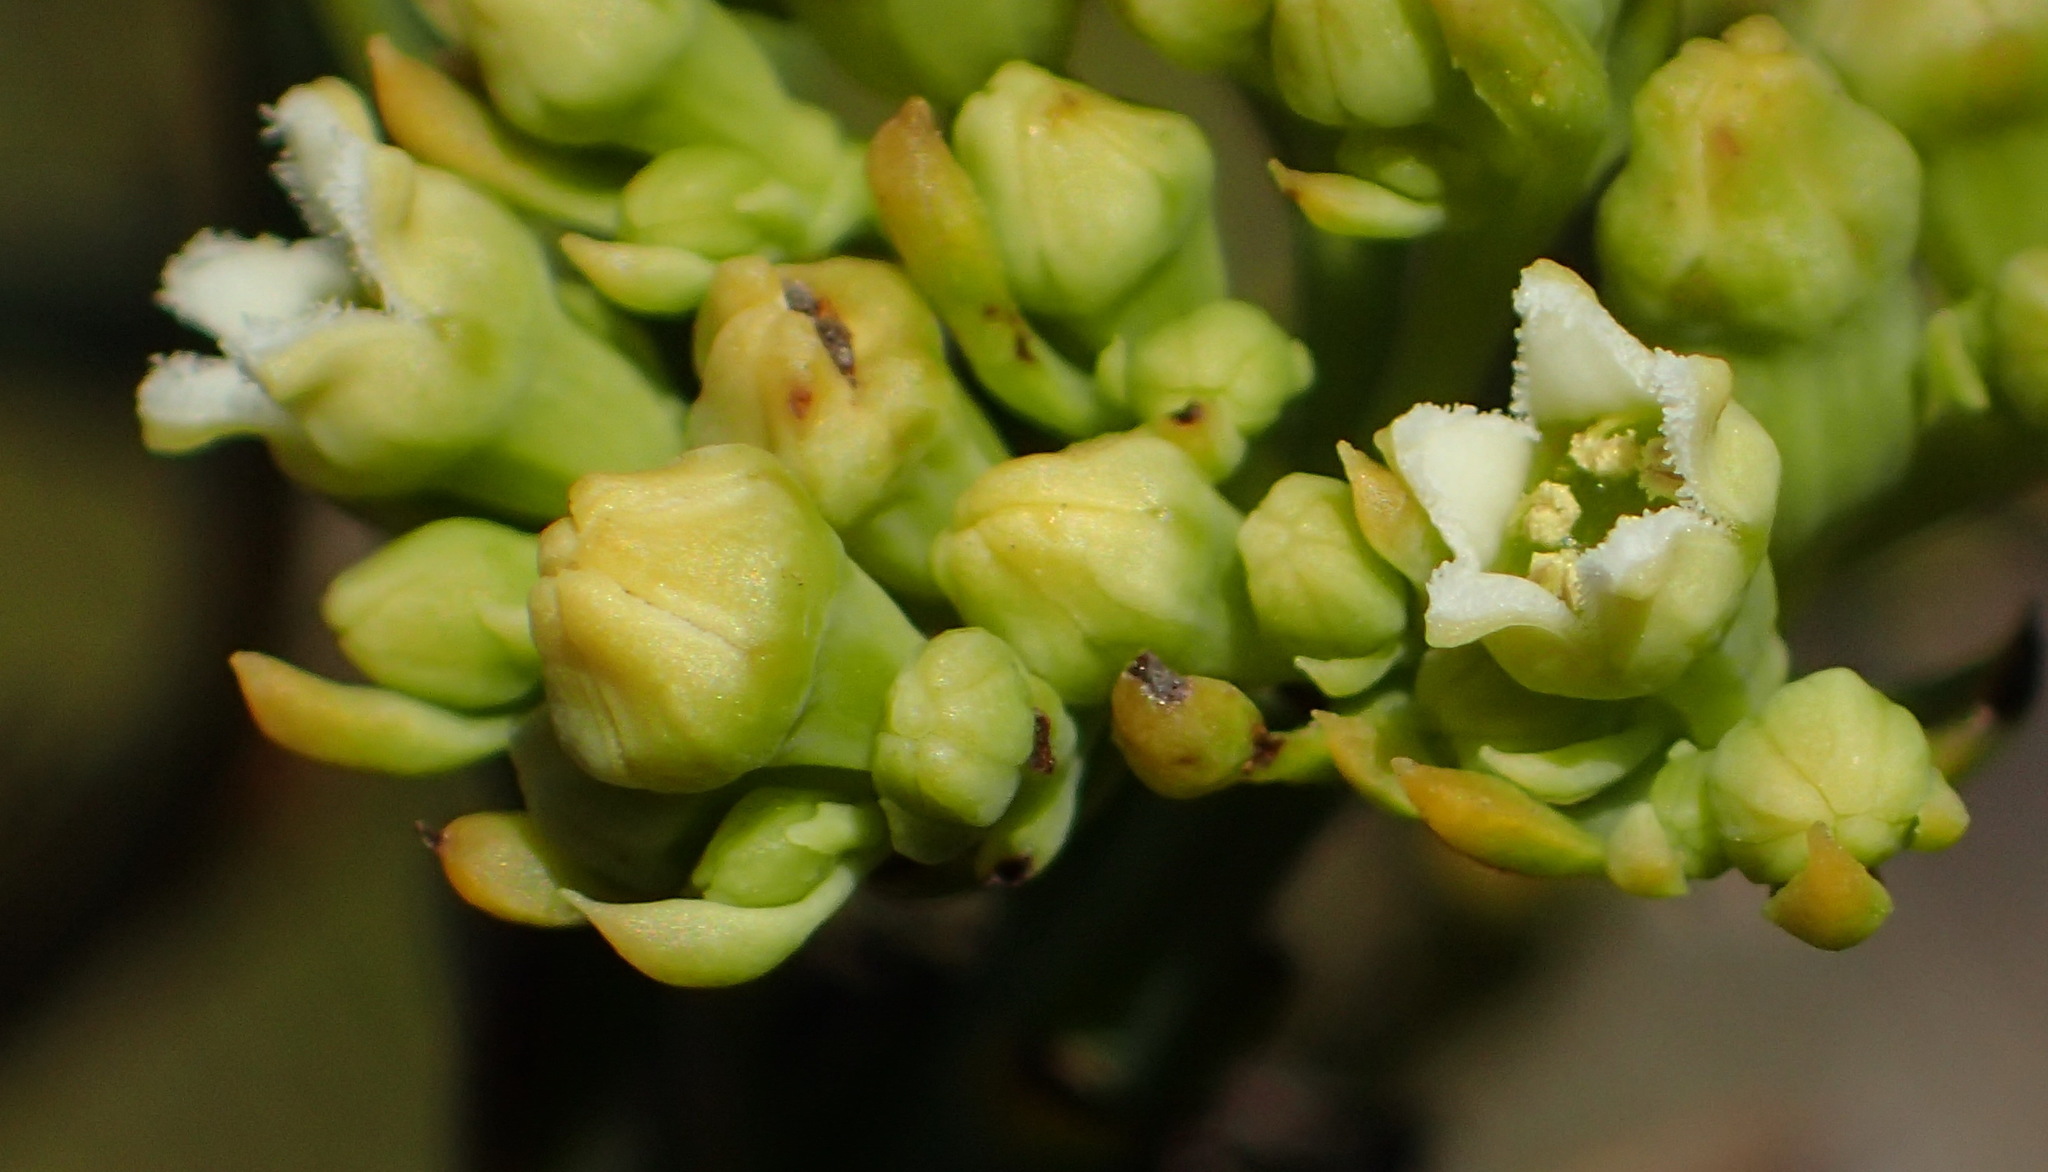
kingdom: Plantae
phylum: Tracheophyta
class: Magnoliopsida
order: Santalales
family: Thesiaceae
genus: Thesium
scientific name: Thesium occidentale
